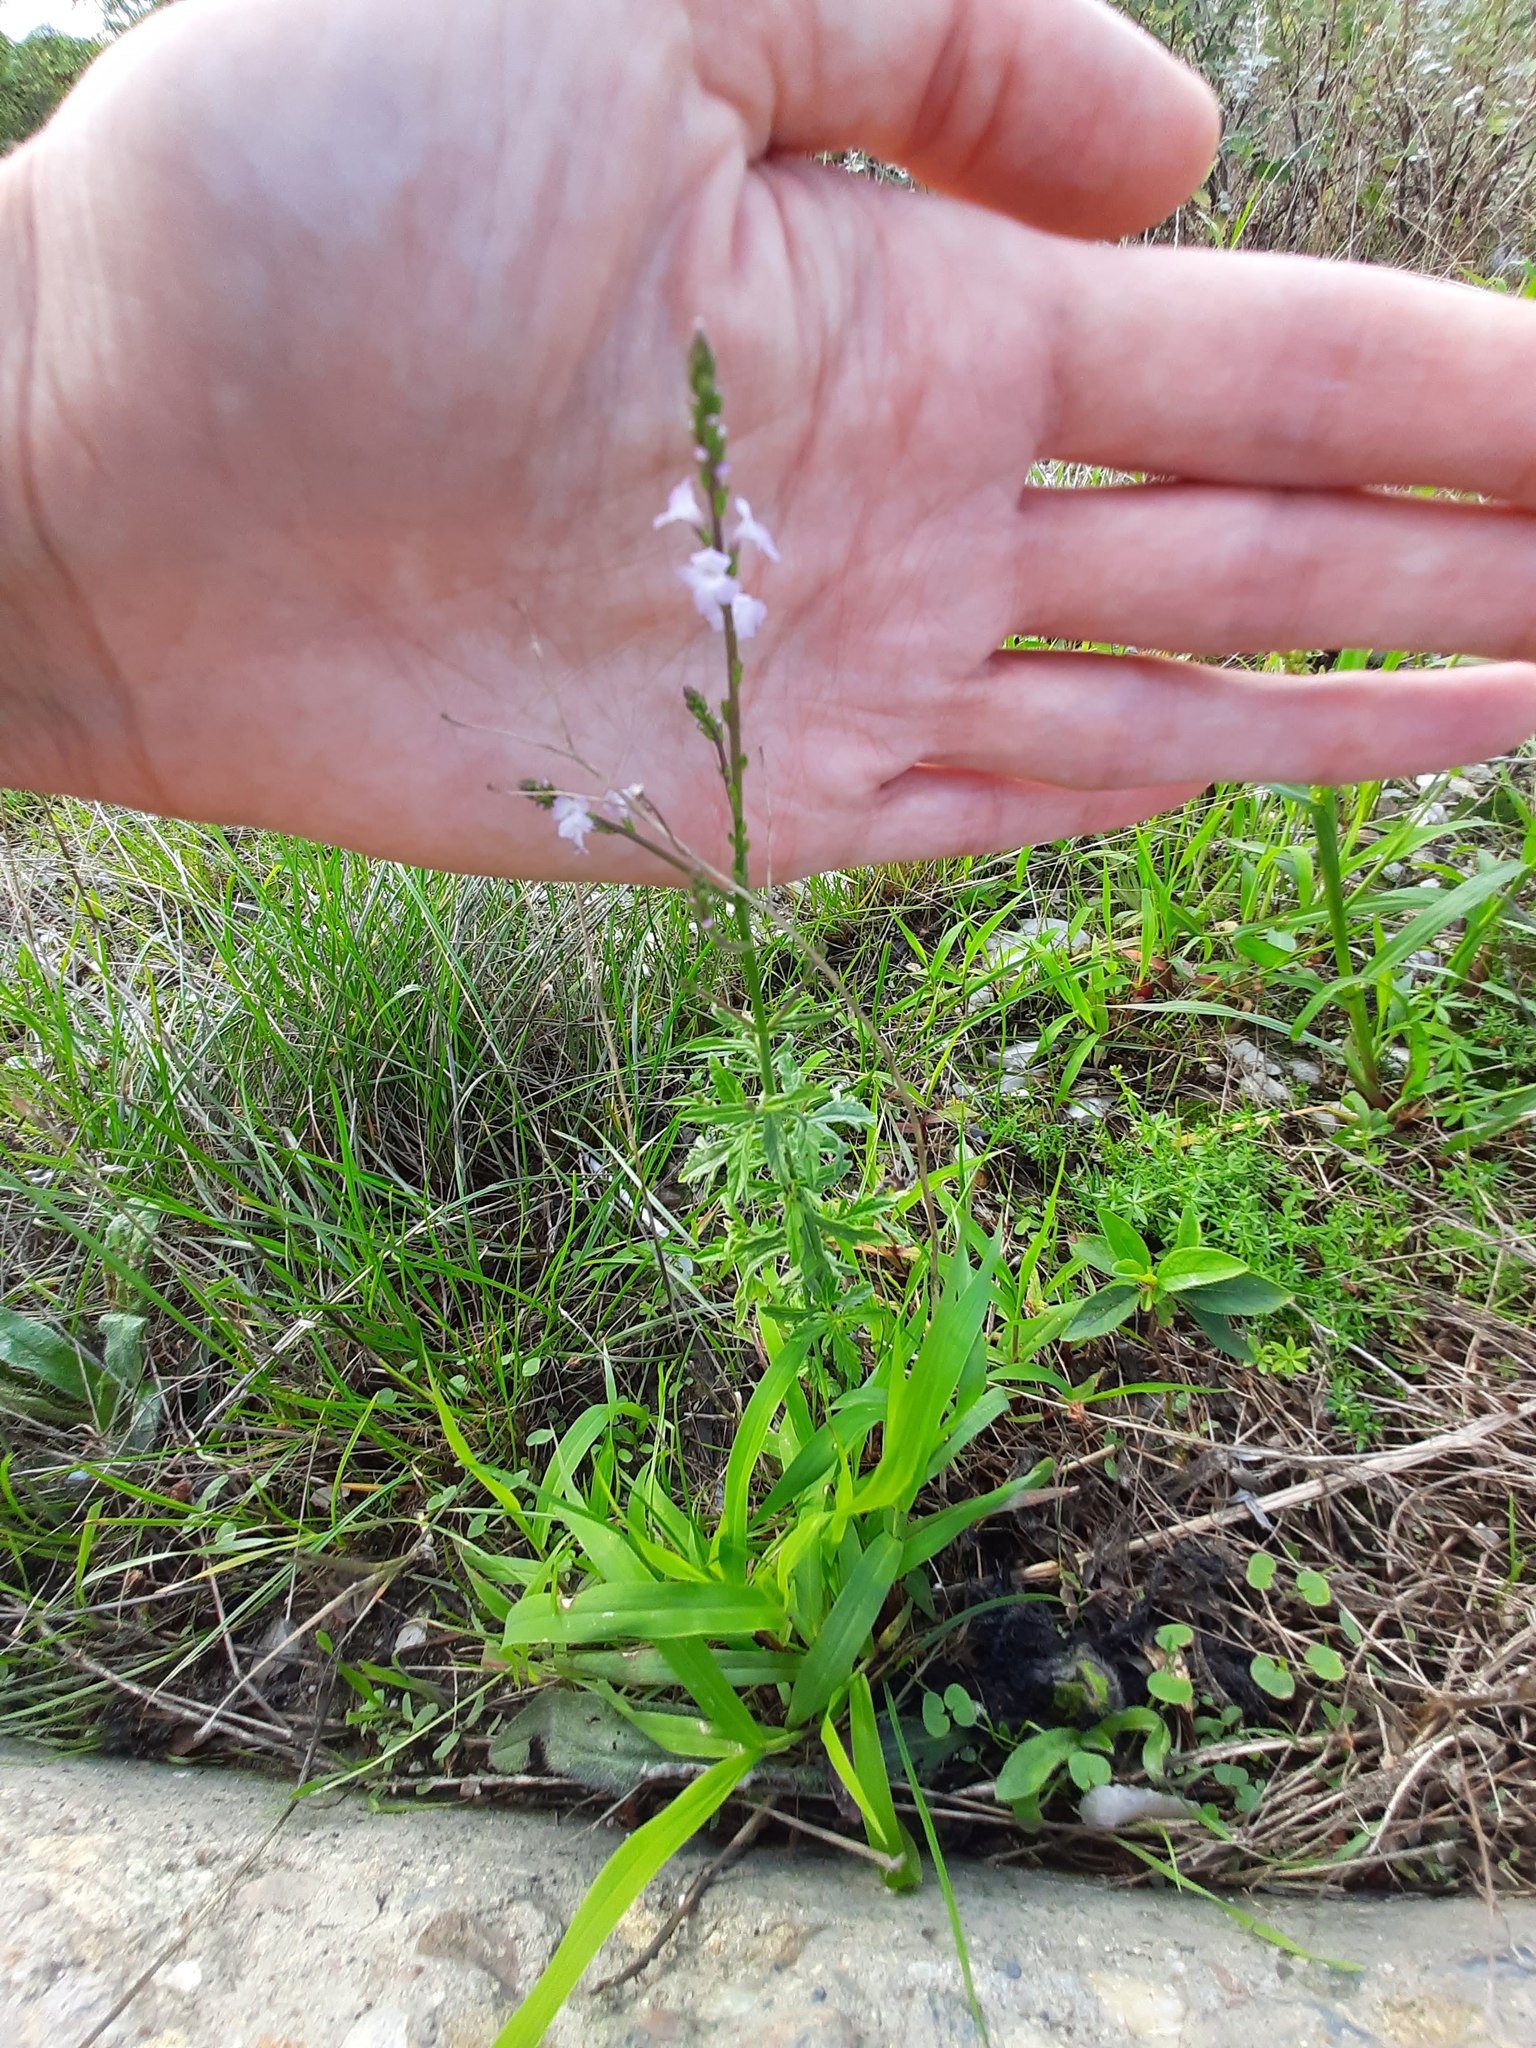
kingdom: Plantae
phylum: Tracheophyta
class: Magnoliopsida
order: Lamiales
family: Verbenaceae
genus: Verbena
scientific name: Verbena officinalis
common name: Vervain
